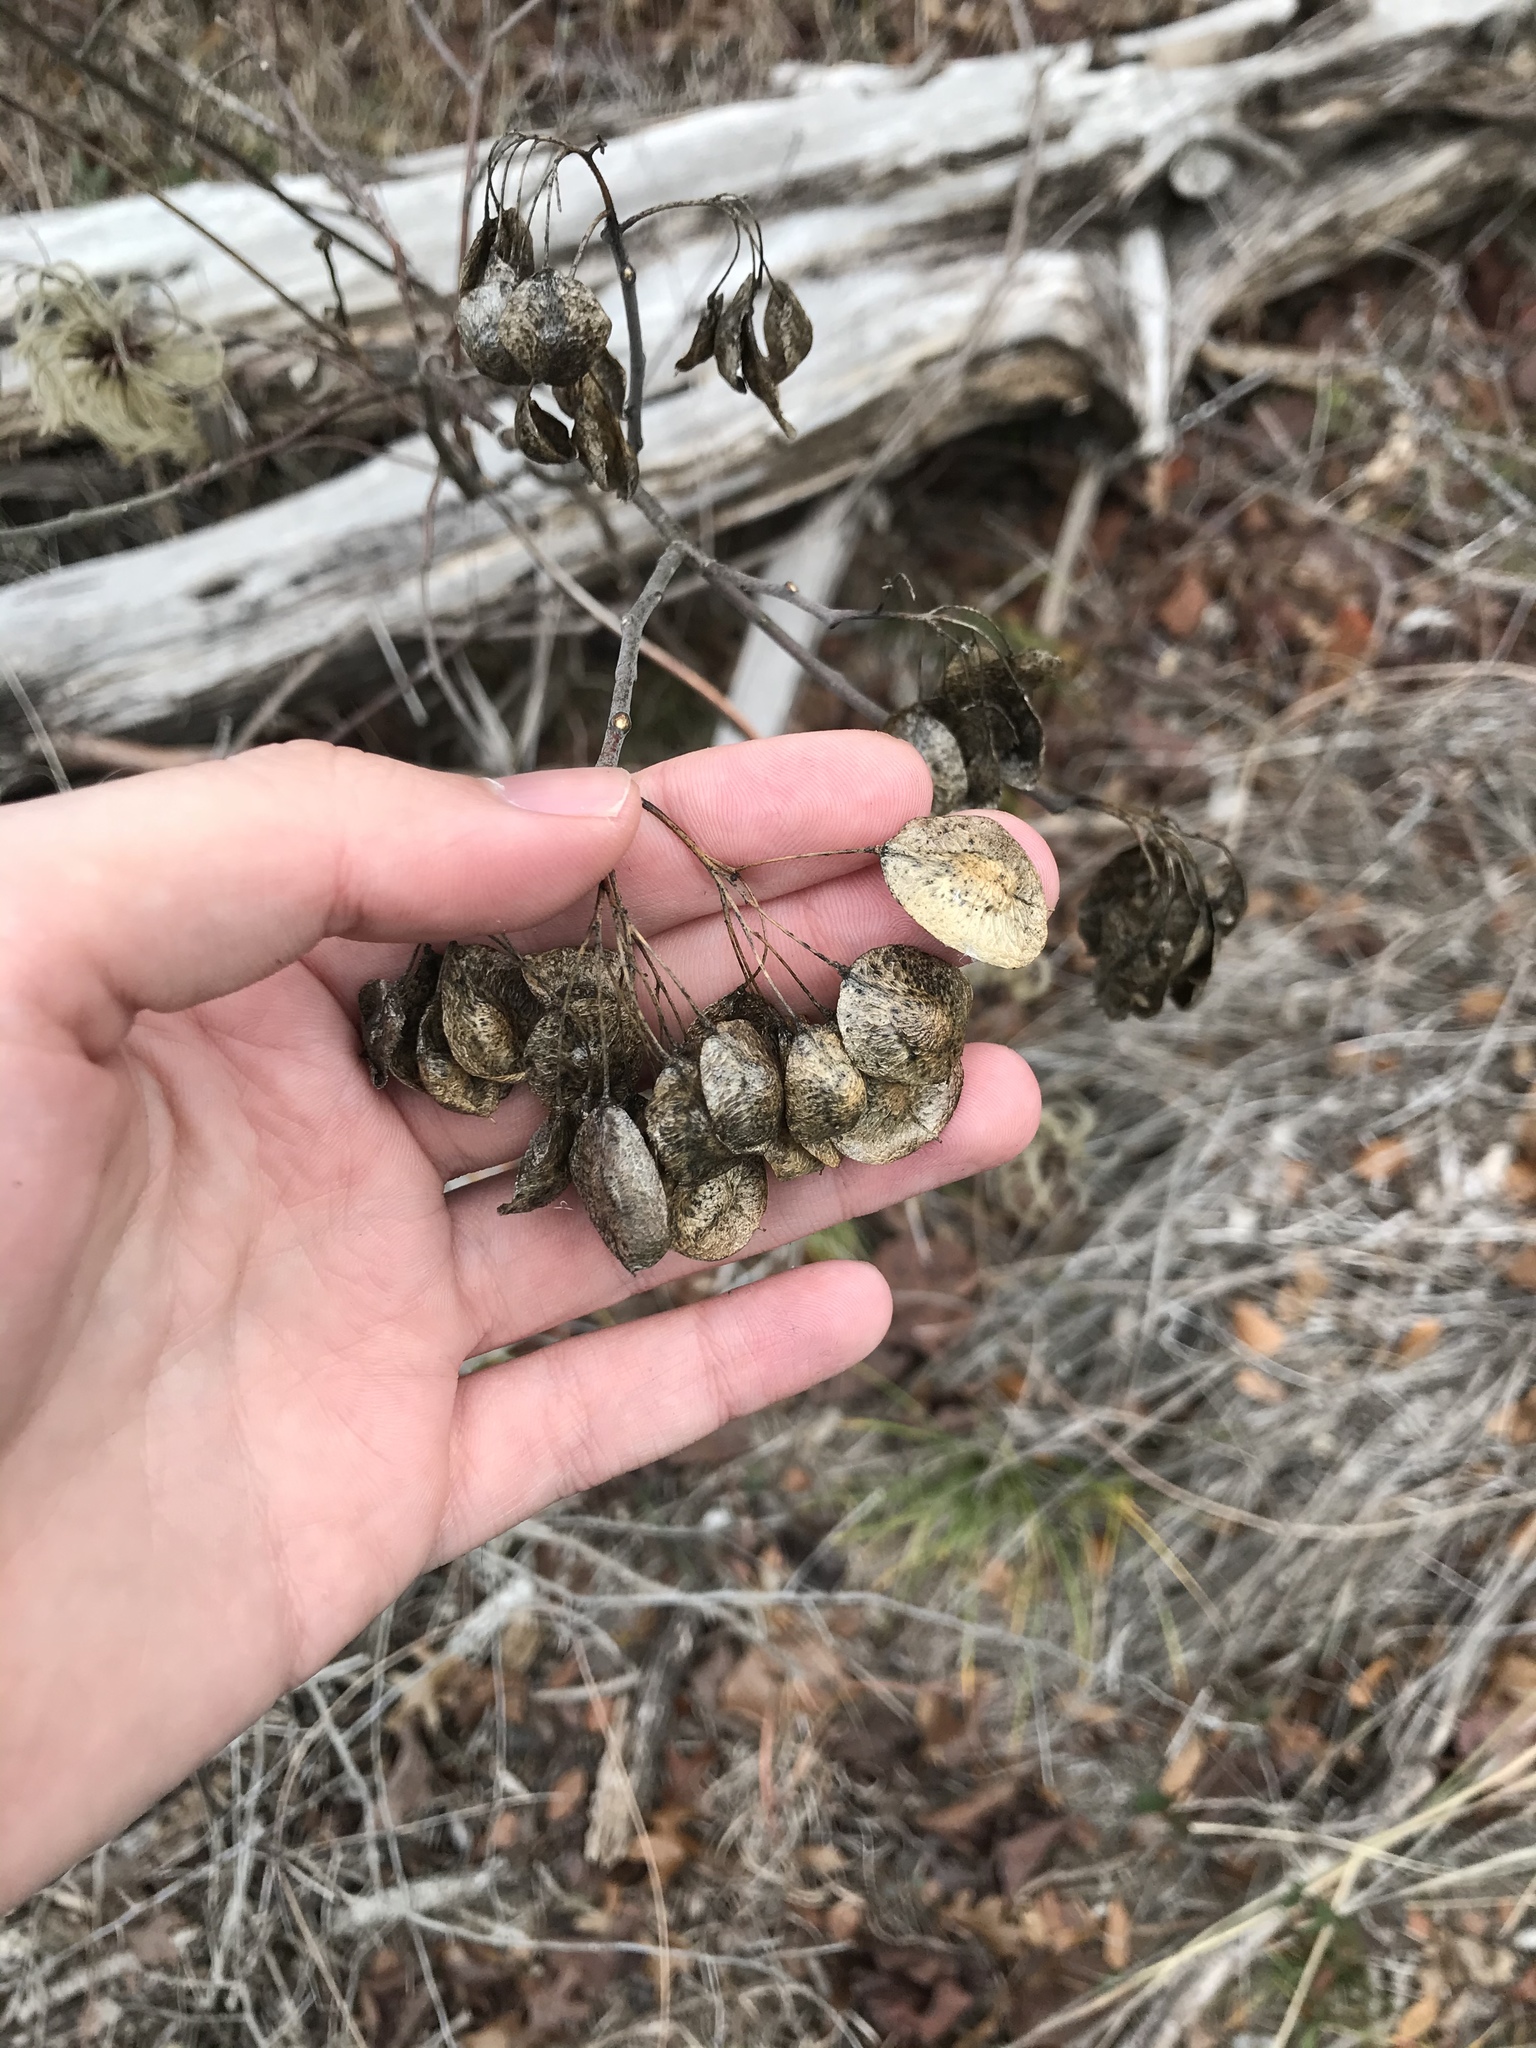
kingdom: Plantae
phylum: Tracheophyta
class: Magnoliopsida
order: Sapindales
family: Rutaceae
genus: Ptelea
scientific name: Ptelea trifoliata
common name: Common hop-tree
